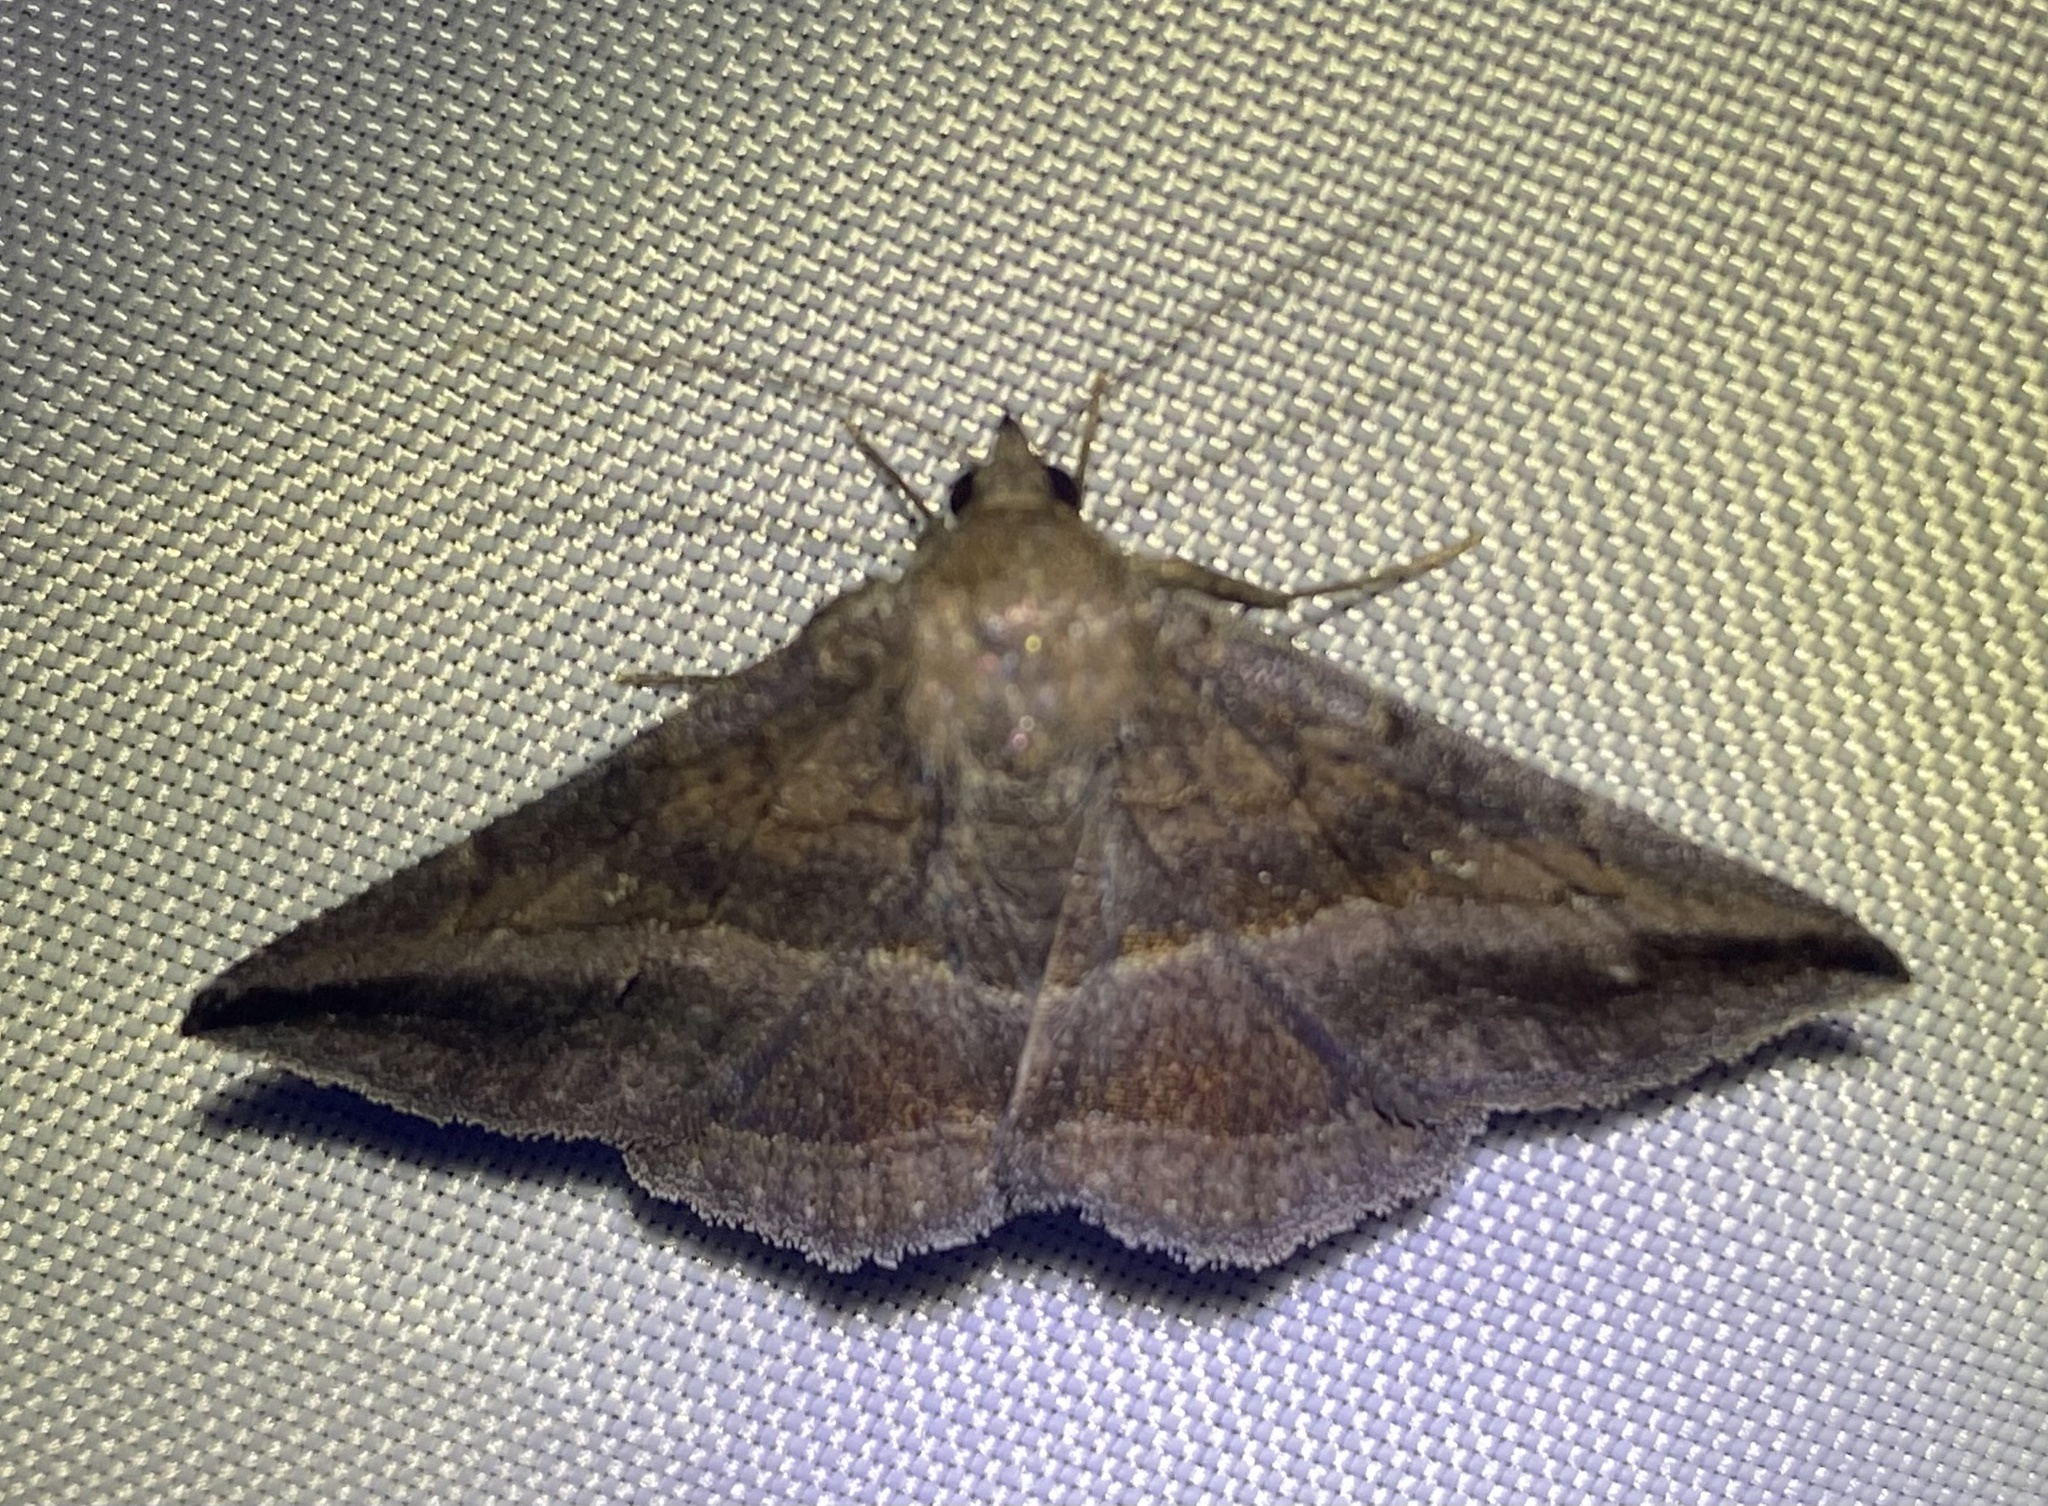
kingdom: Animalia
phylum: Arthropoda
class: Insecta
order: Lepidoptera
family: Erebidae
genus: Lesmone
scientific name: Lesmone detrahens
